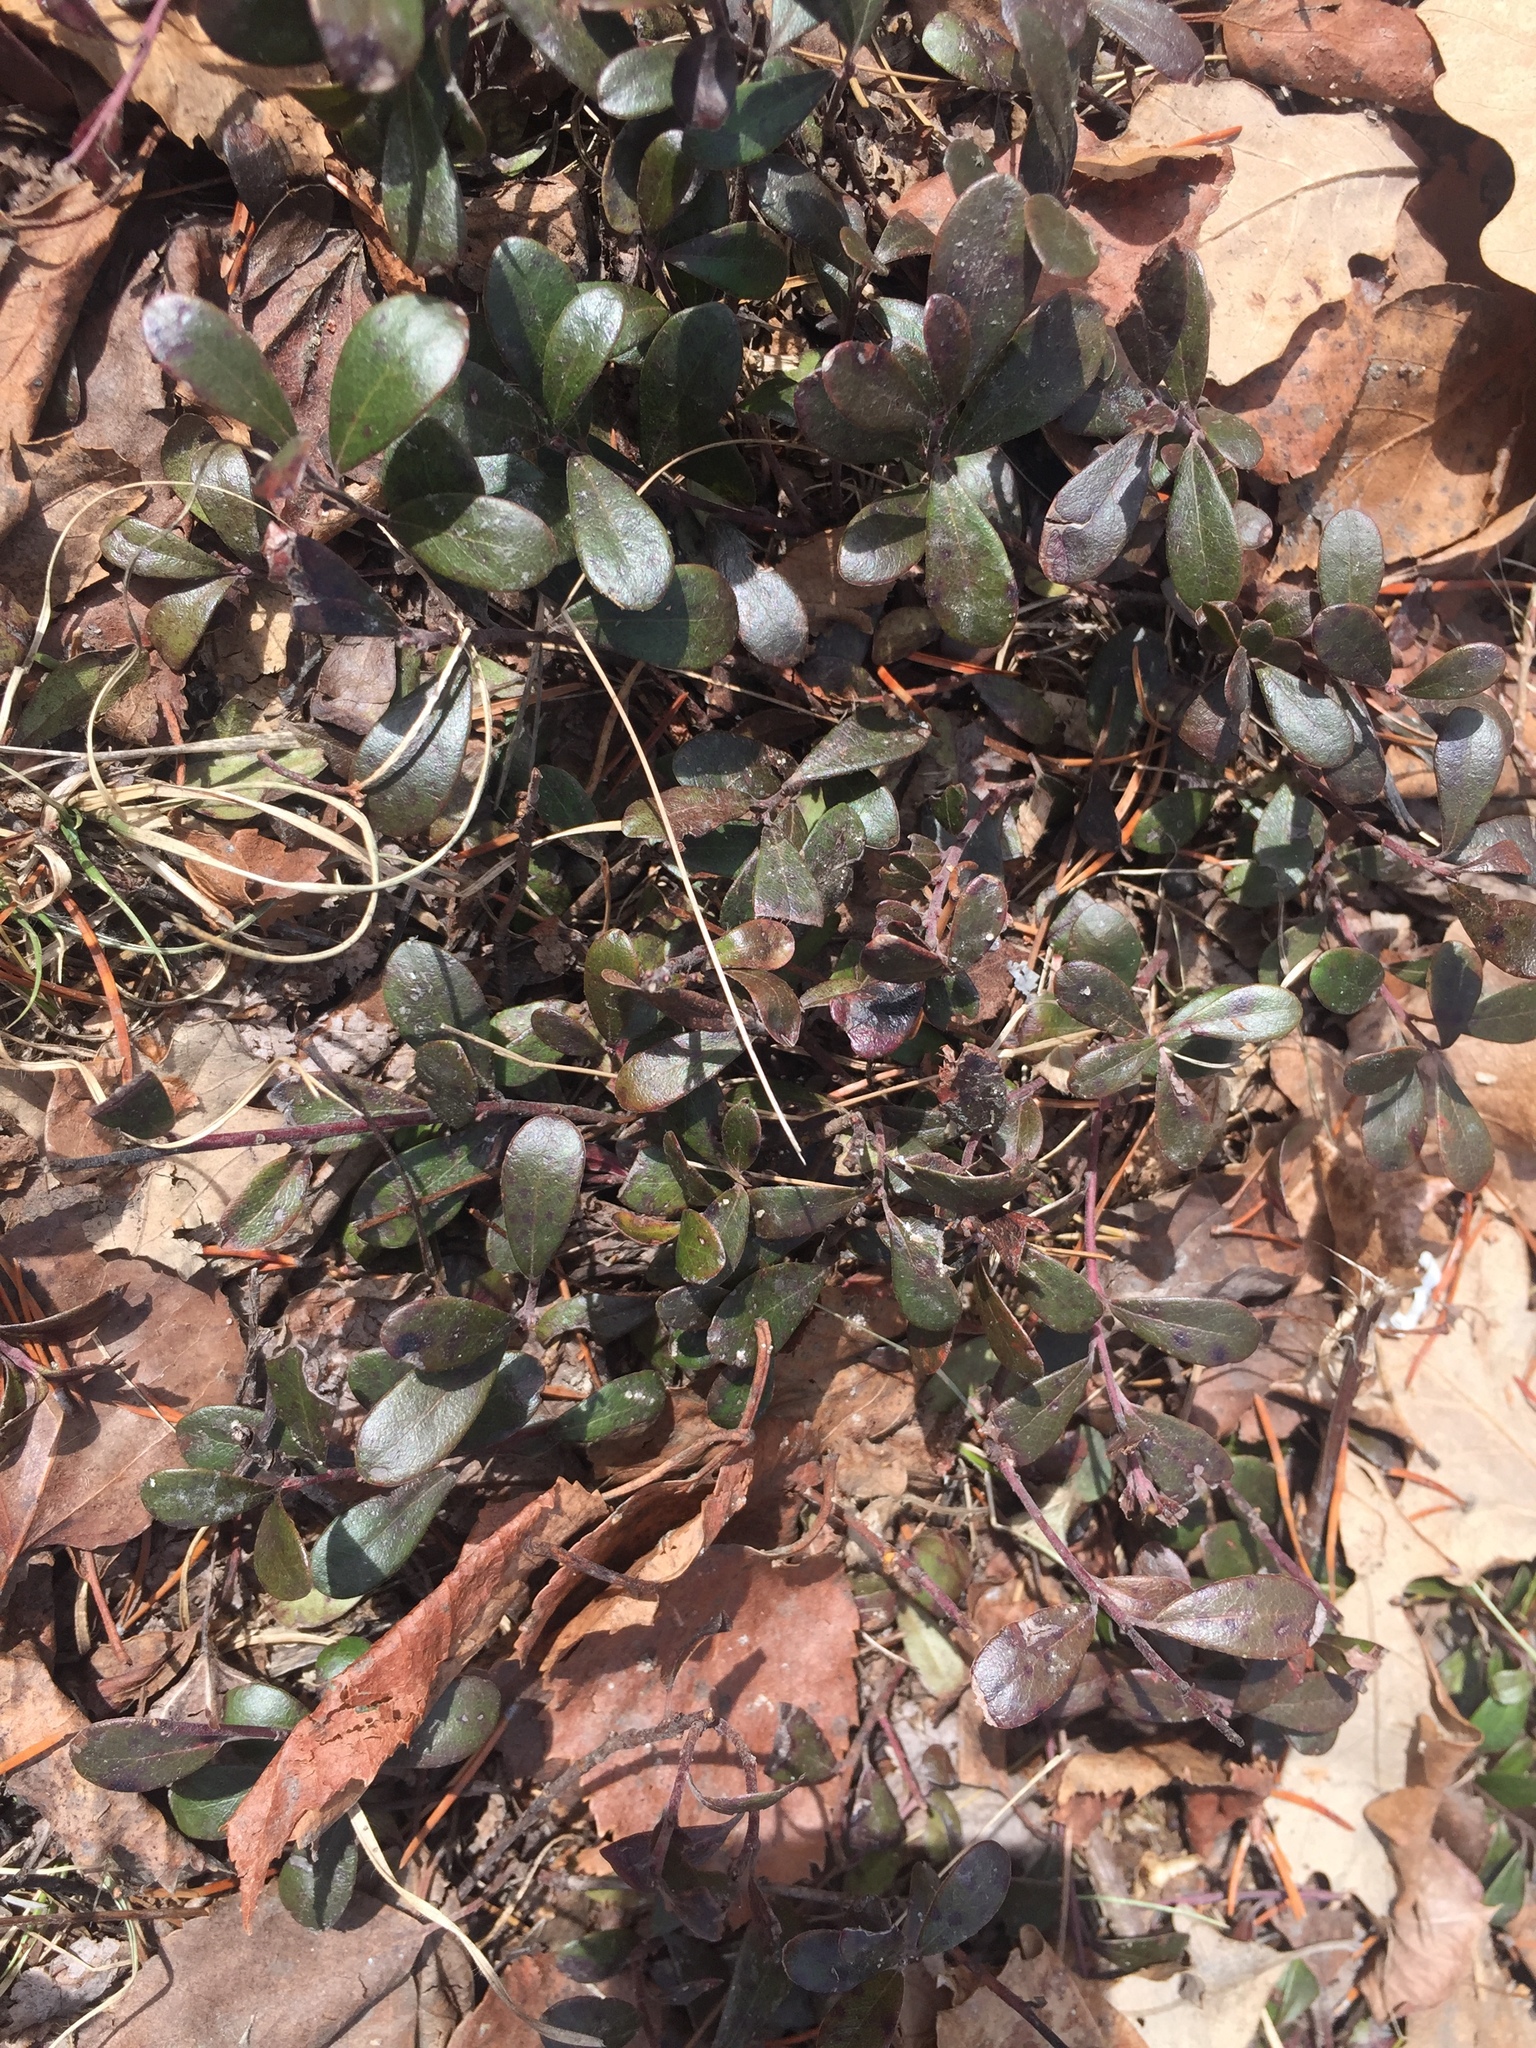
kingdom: Plantae
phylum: Tracheophyta
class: Magnoliopsida
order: Ericales
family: Ericaceae
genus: Arctostaphylos
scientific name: Arctostaphylos uva-ursi
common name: Bearberry
